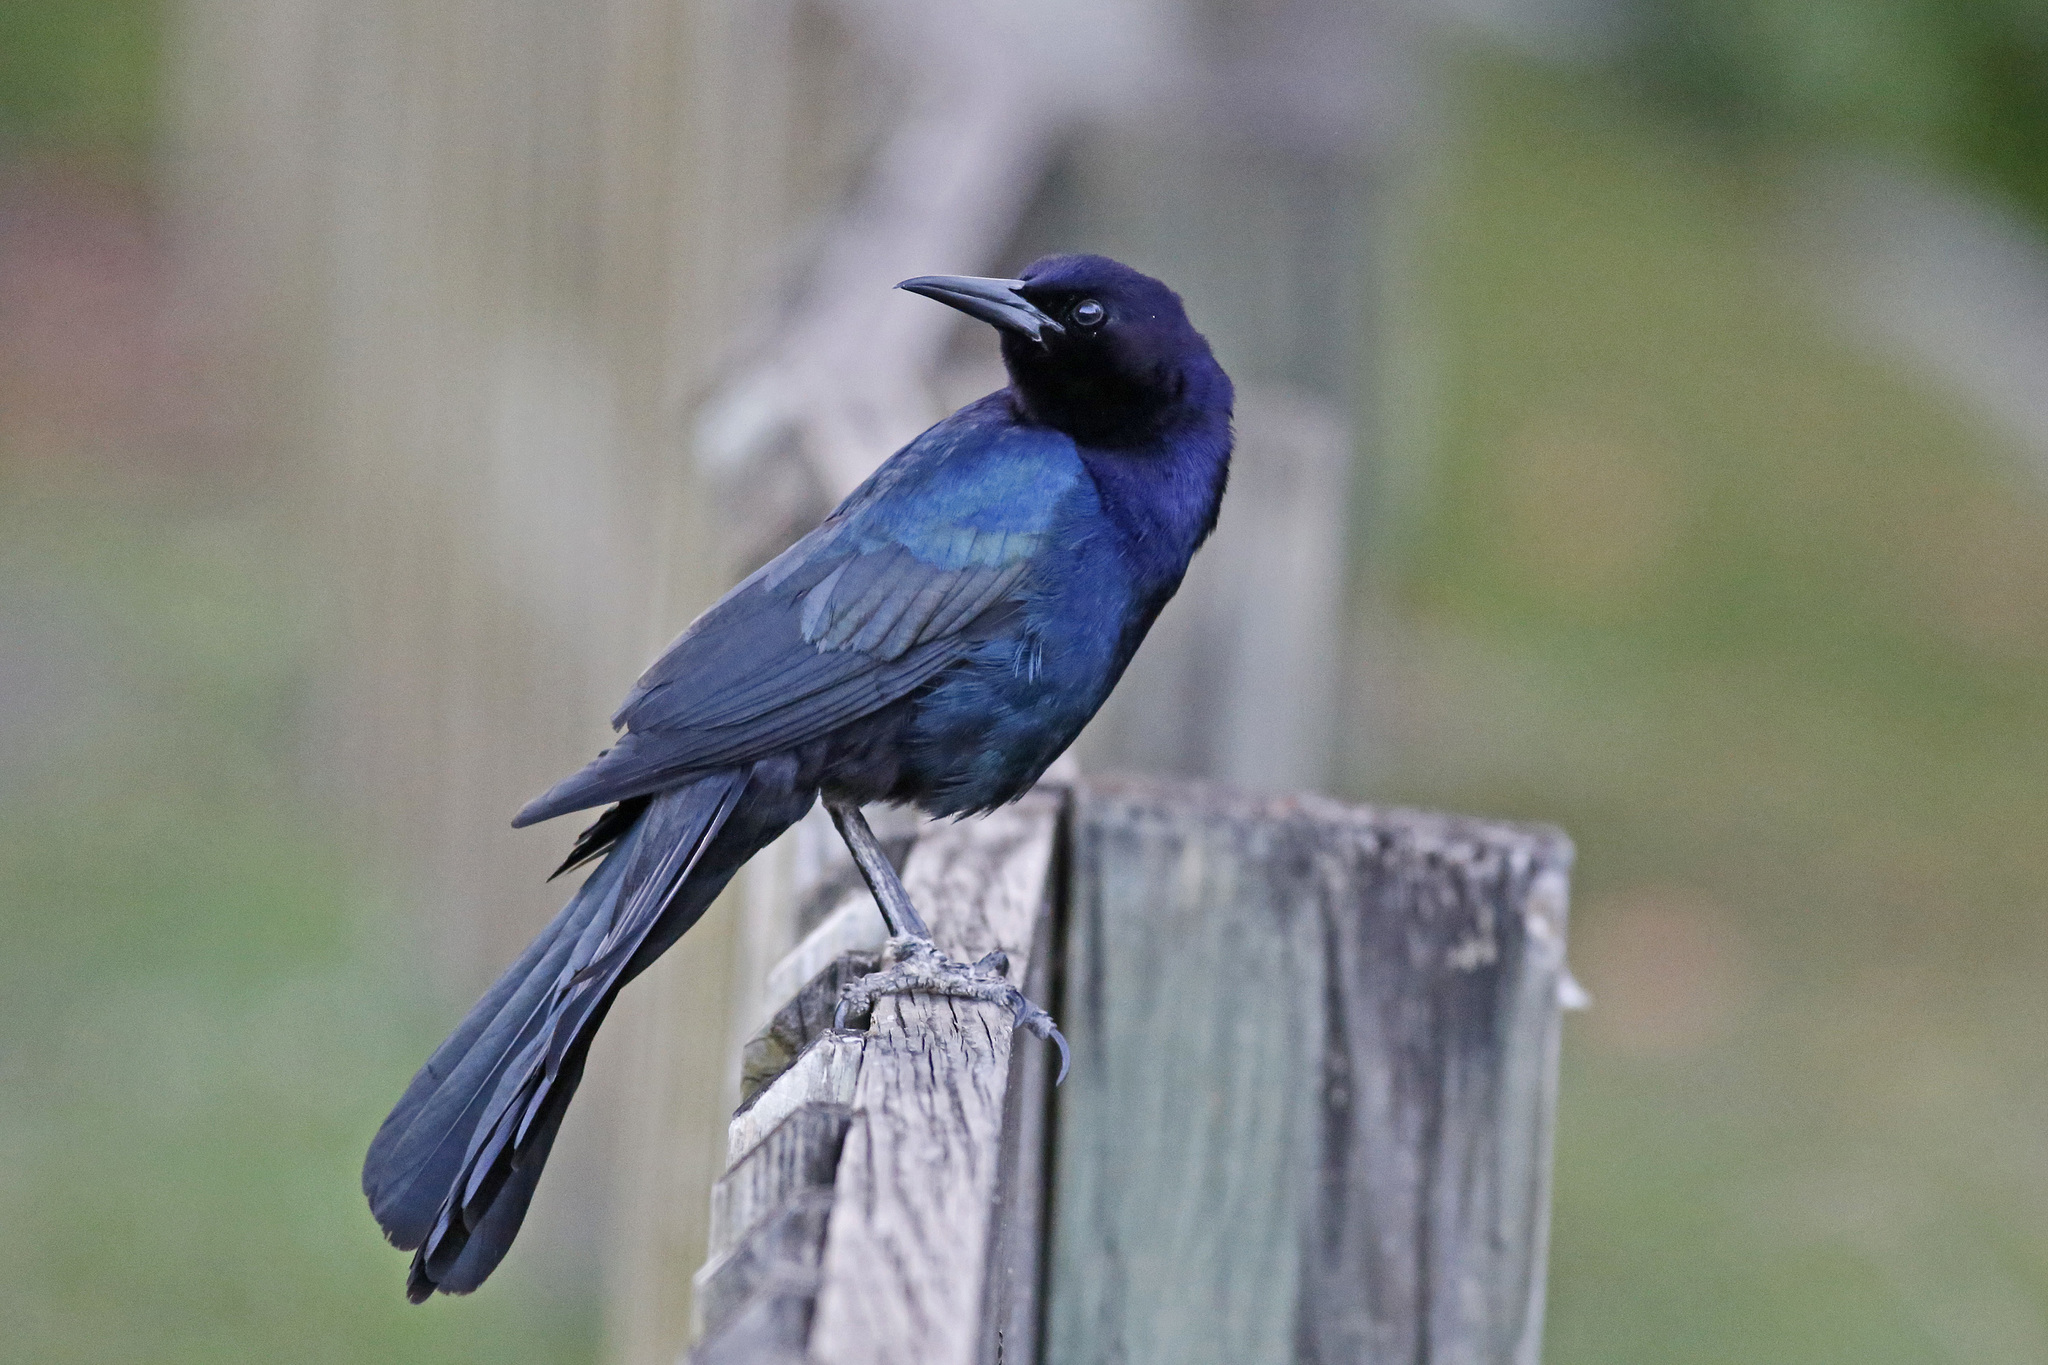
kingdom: Animalia
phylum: Chordata
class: Aves
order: Passeriformes
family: Icteridae
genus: Quiscalus
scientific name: Quiscalus major
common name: Boat-tailed grackle
